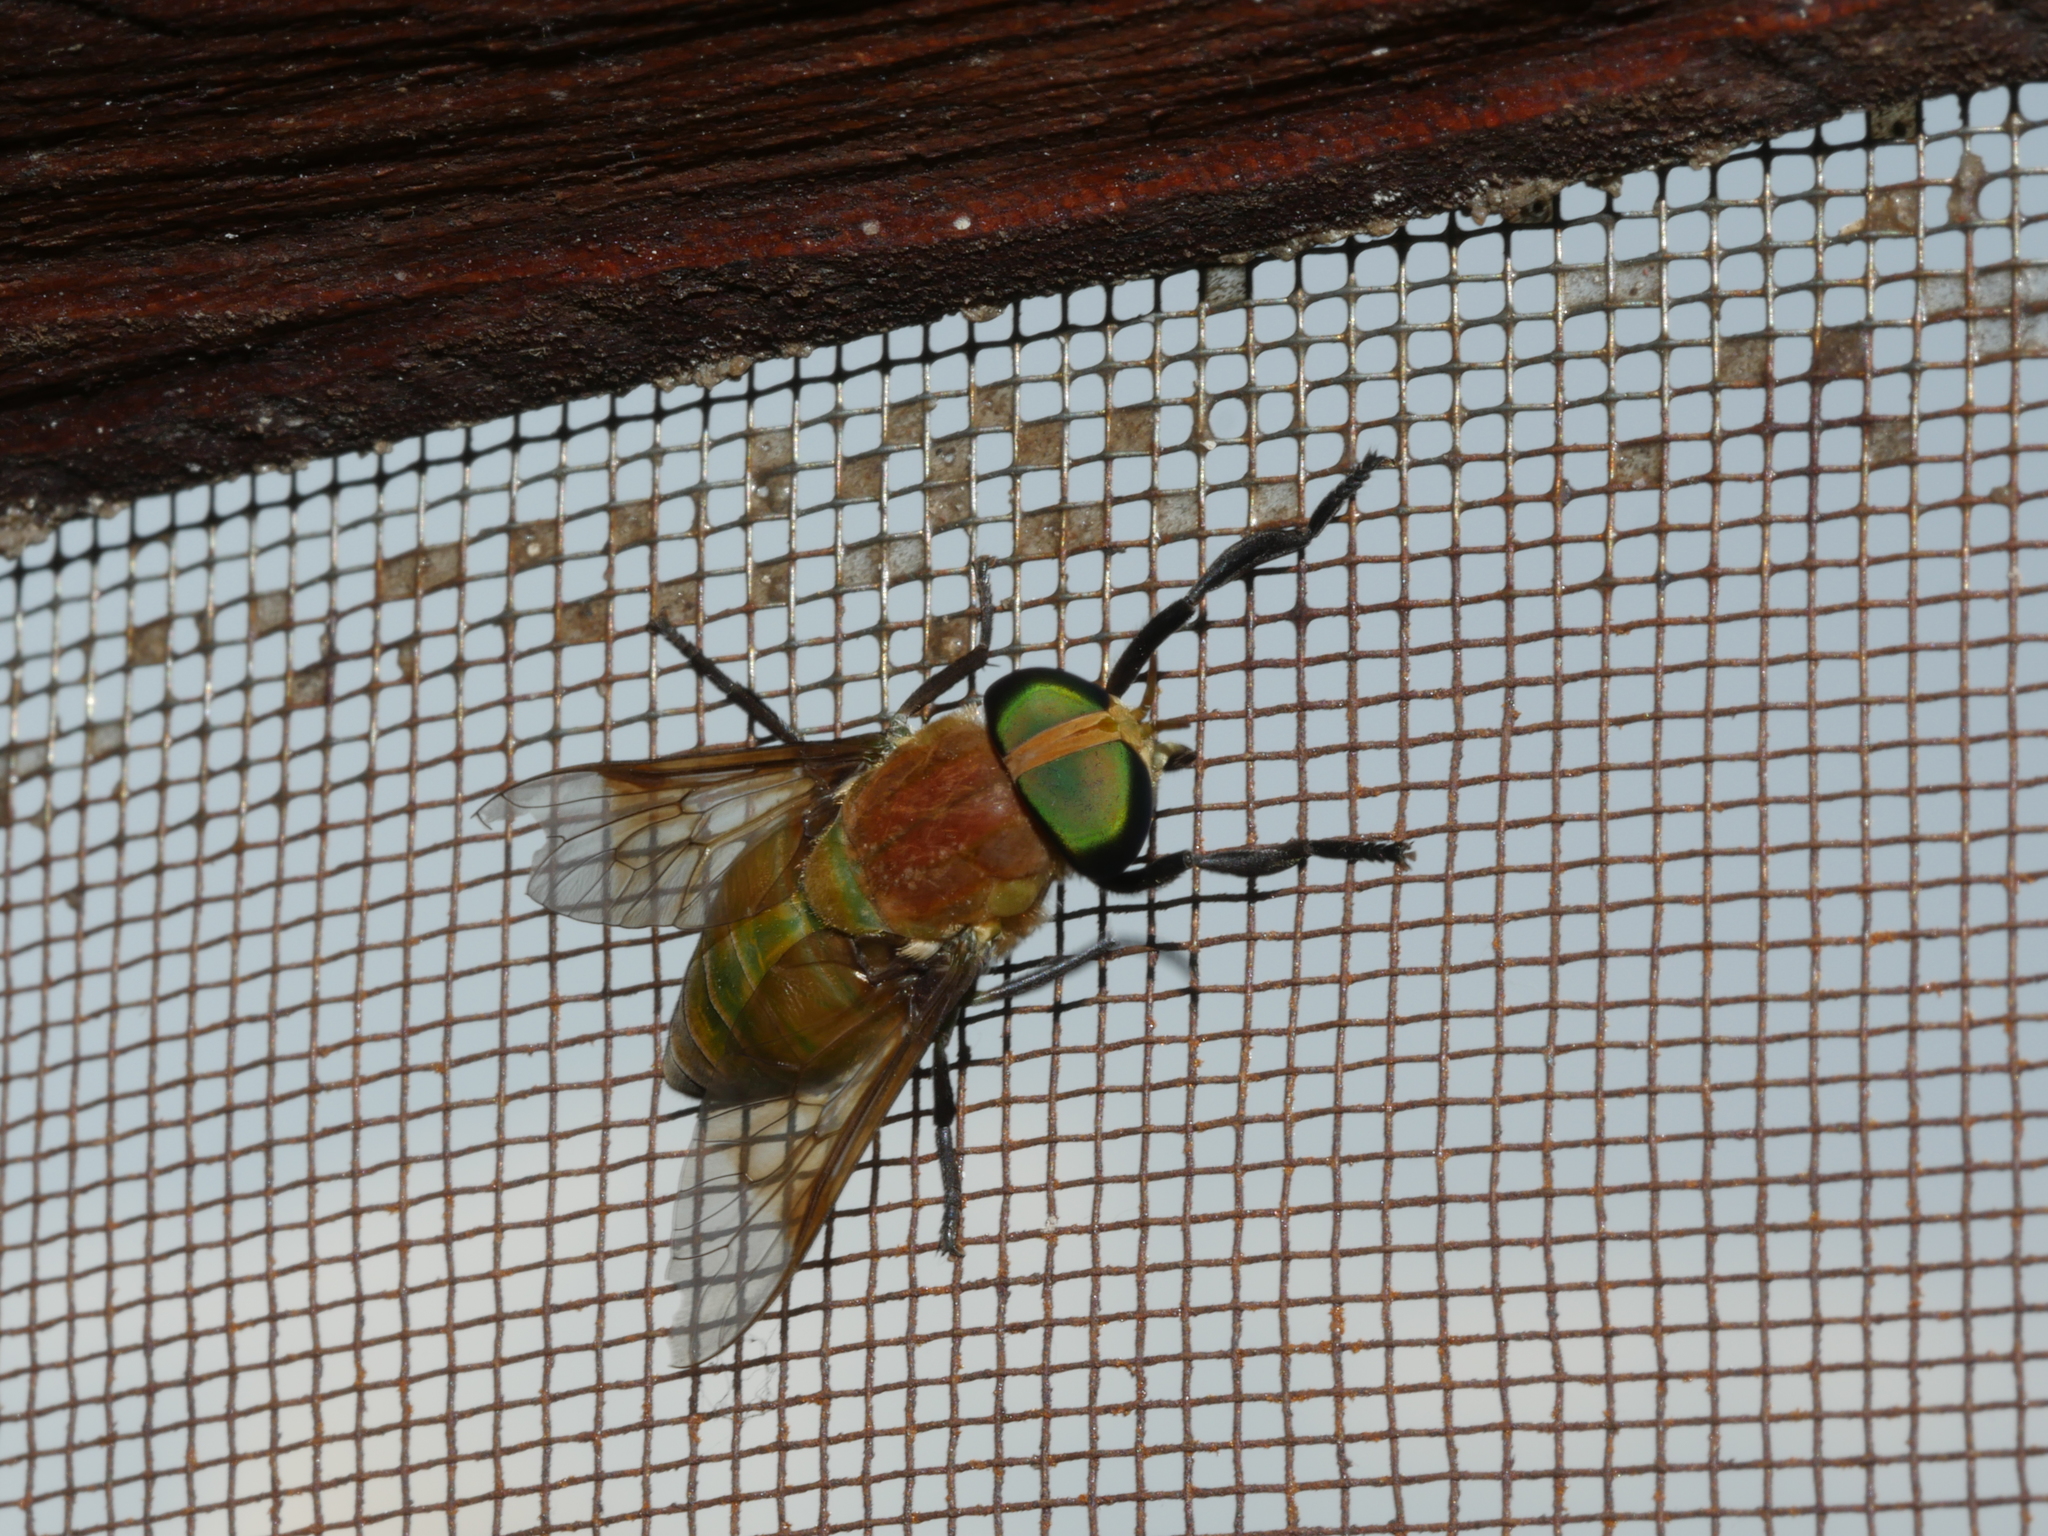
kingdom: Animalia
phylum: Arthropoda
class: Insecta
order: Diptera
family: Tabanidae
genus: Ancala
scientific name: Ancala fasciata
